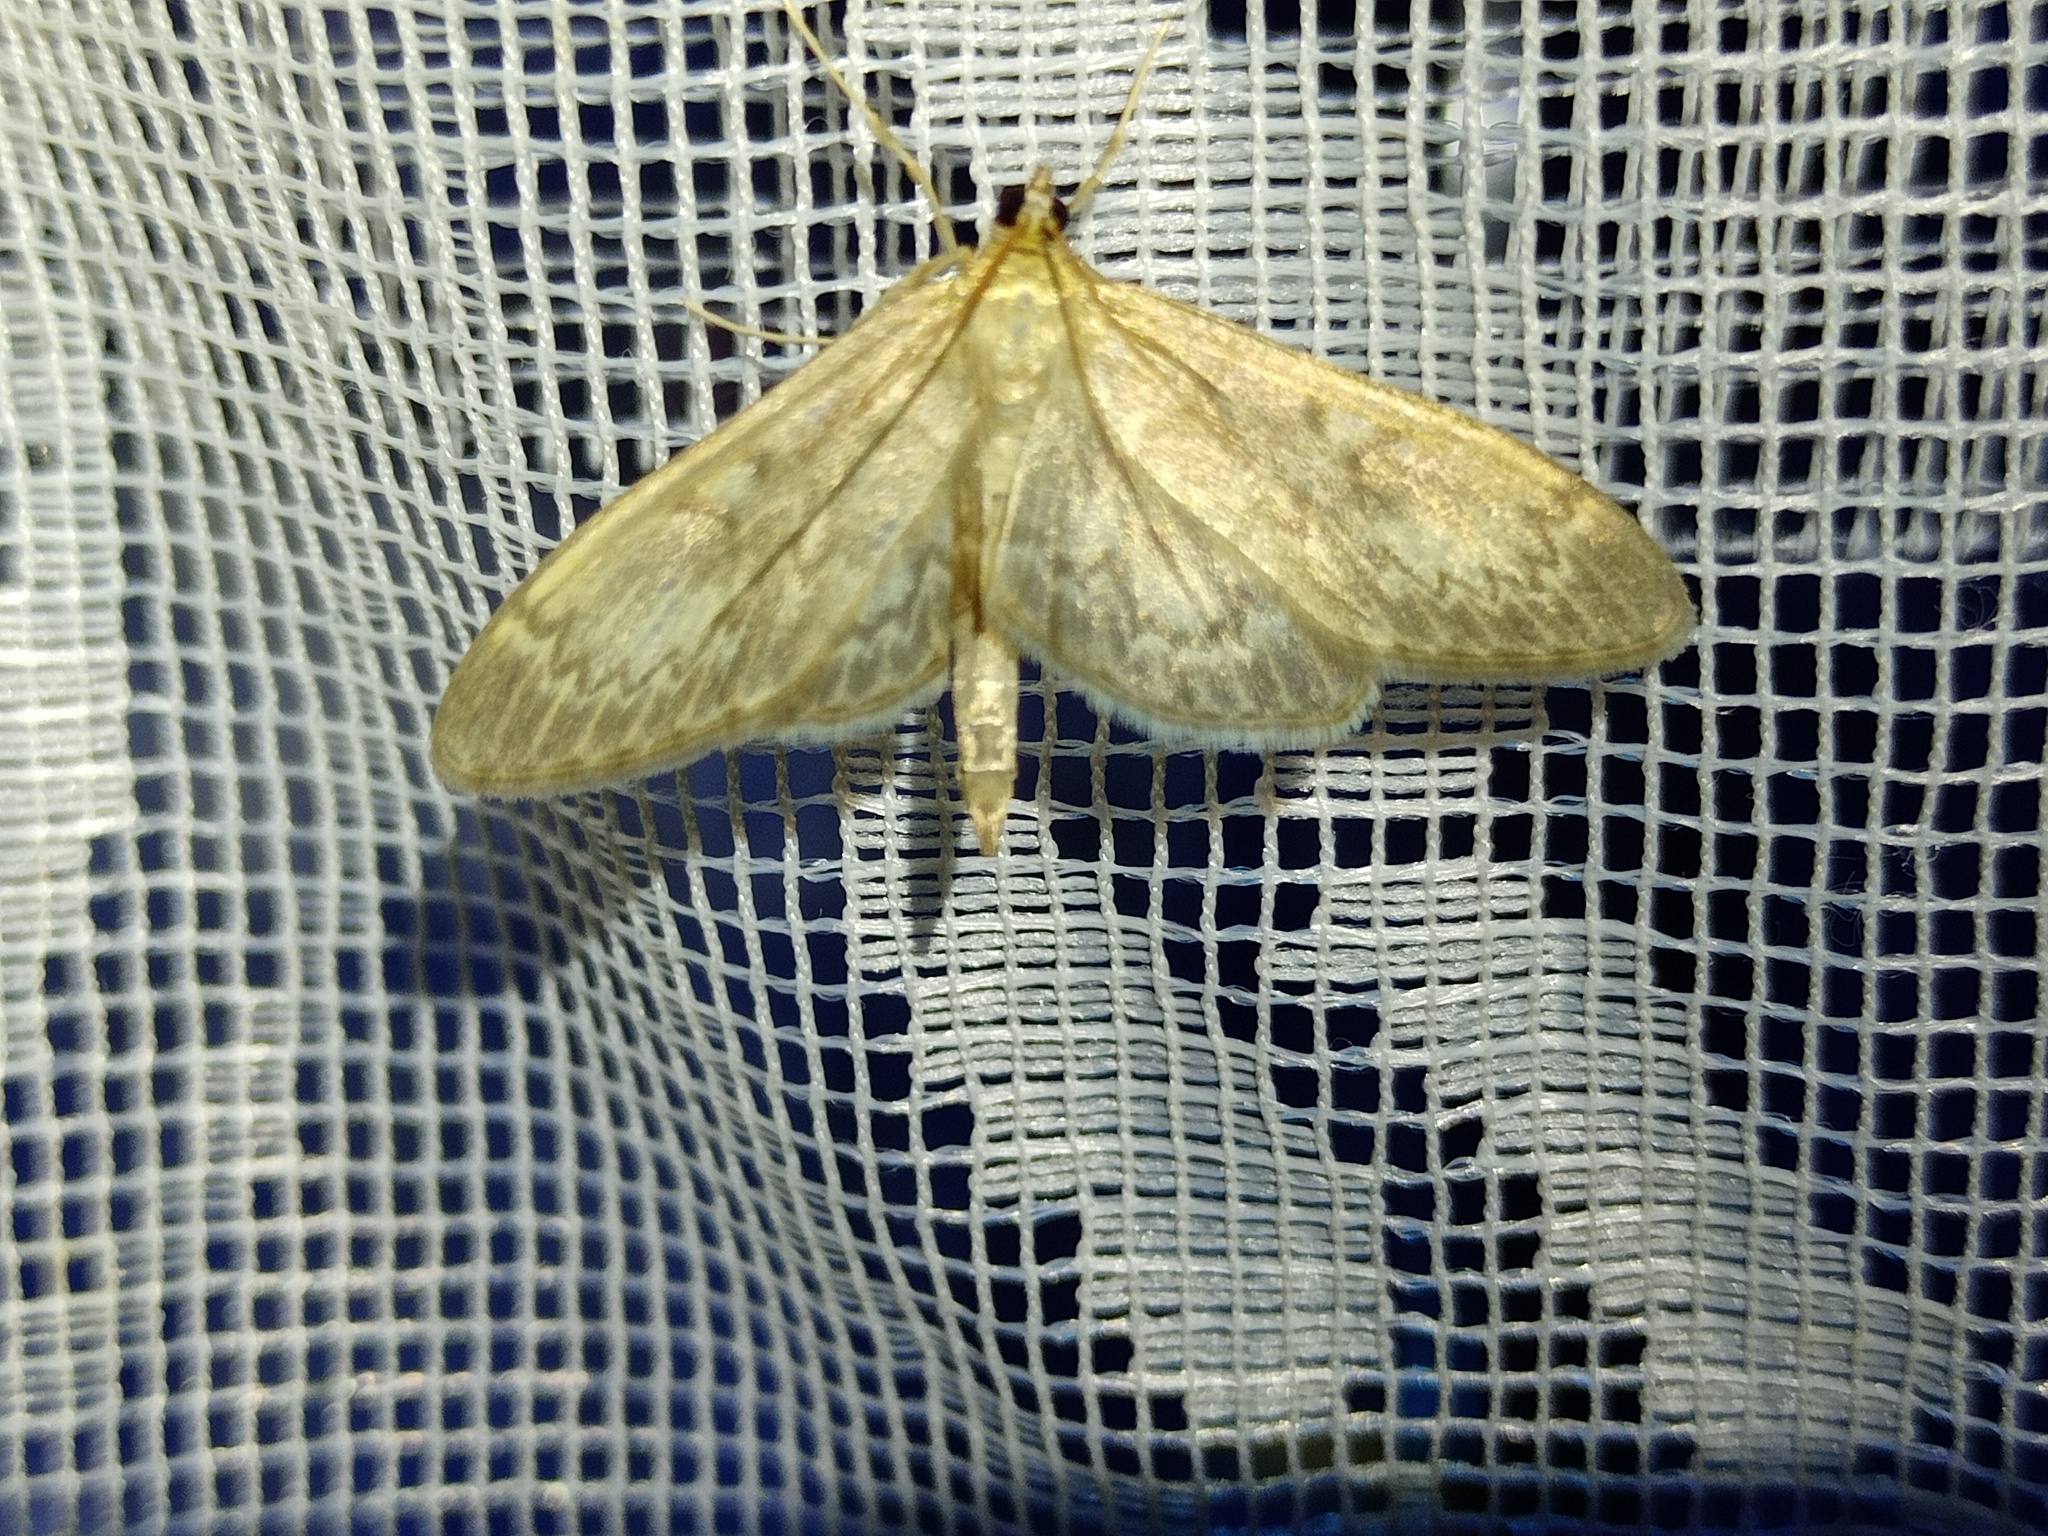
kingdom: Animalia
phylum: Arthropoda
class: Insecta
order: Lepidoptera
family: Crambidae
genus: Anania
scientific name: Anania lancealis
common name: Long-winged pearl
